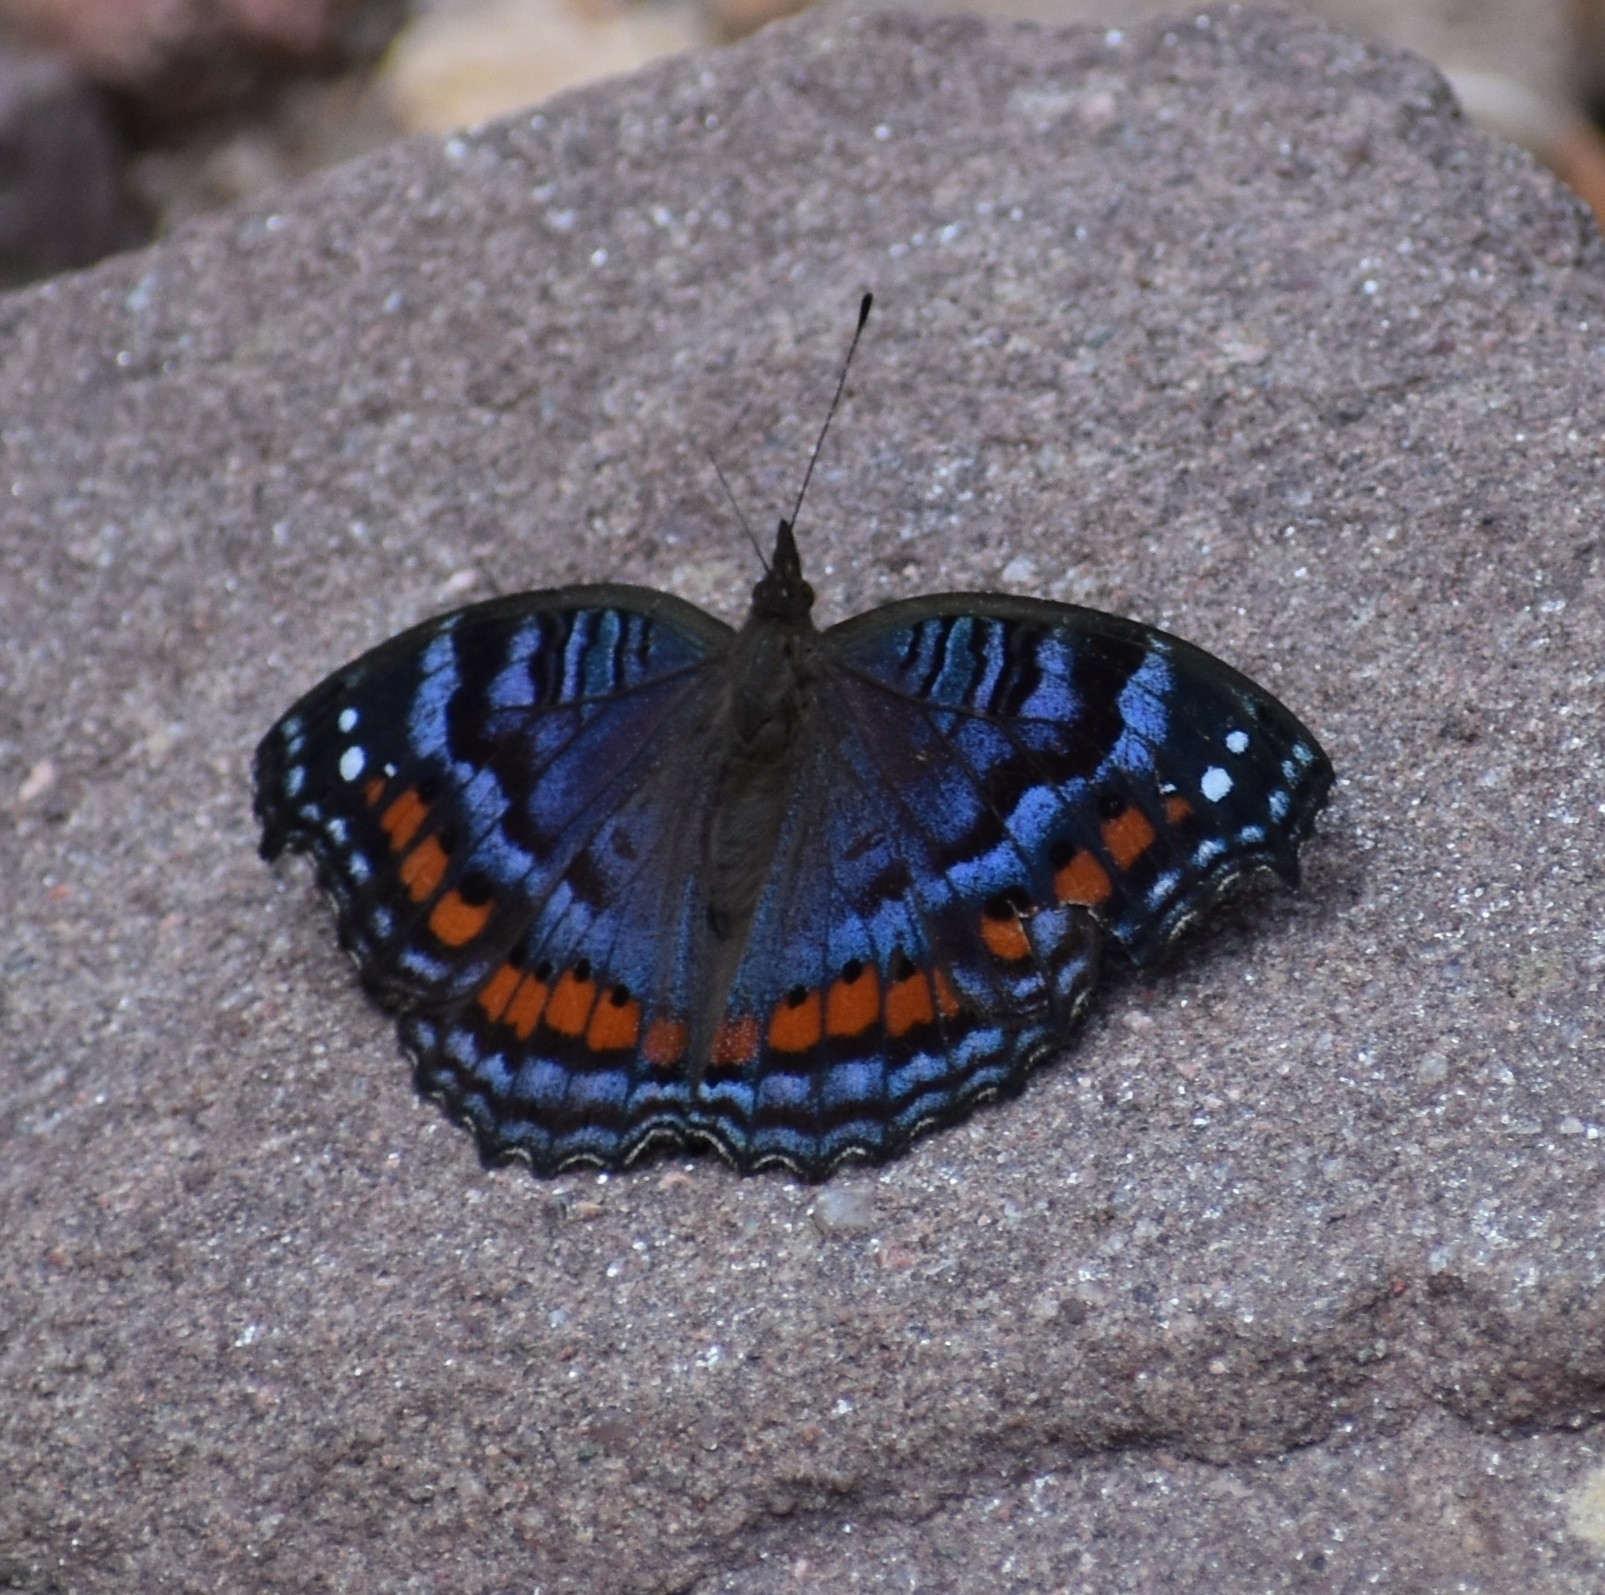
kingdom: Animalia
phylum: Arthropoda
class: Insecta
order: Lepidoptera
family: Nymphalidae
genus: Precis
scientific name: Precis octavia
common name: Gaudy commodore
